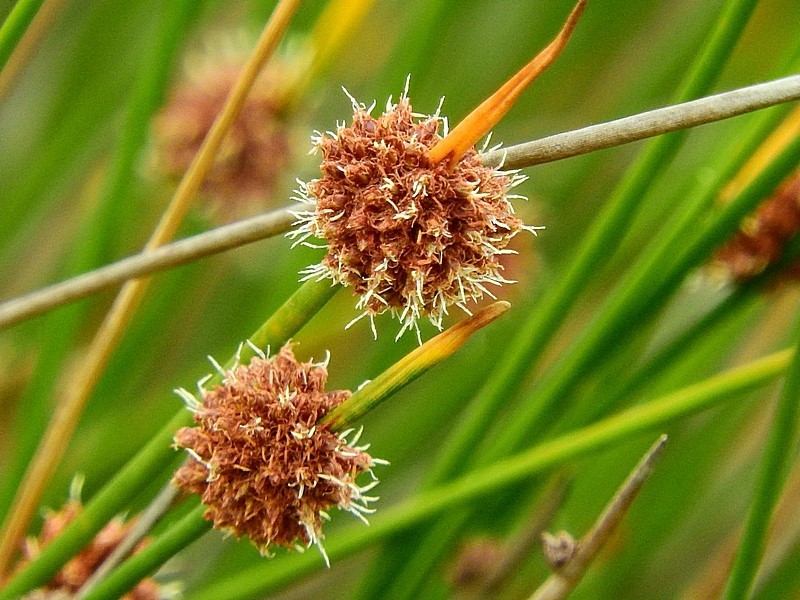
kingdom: Plantae
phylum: Tracheophyta
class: Liliopsida
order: Poales
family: Cyperaceae
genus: Ficinia
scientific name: Ficinia nodosa
